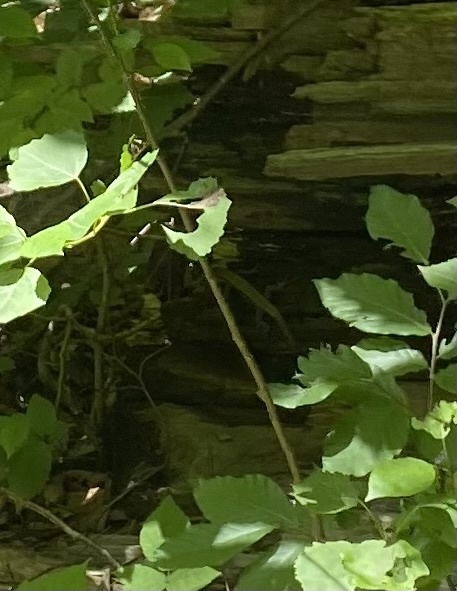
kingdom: Animalia
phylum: Chordata
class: Squamata
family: Lacertidae
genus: Darevskia
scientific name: Darevskia brauneri
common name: Brauner's rock lizard
